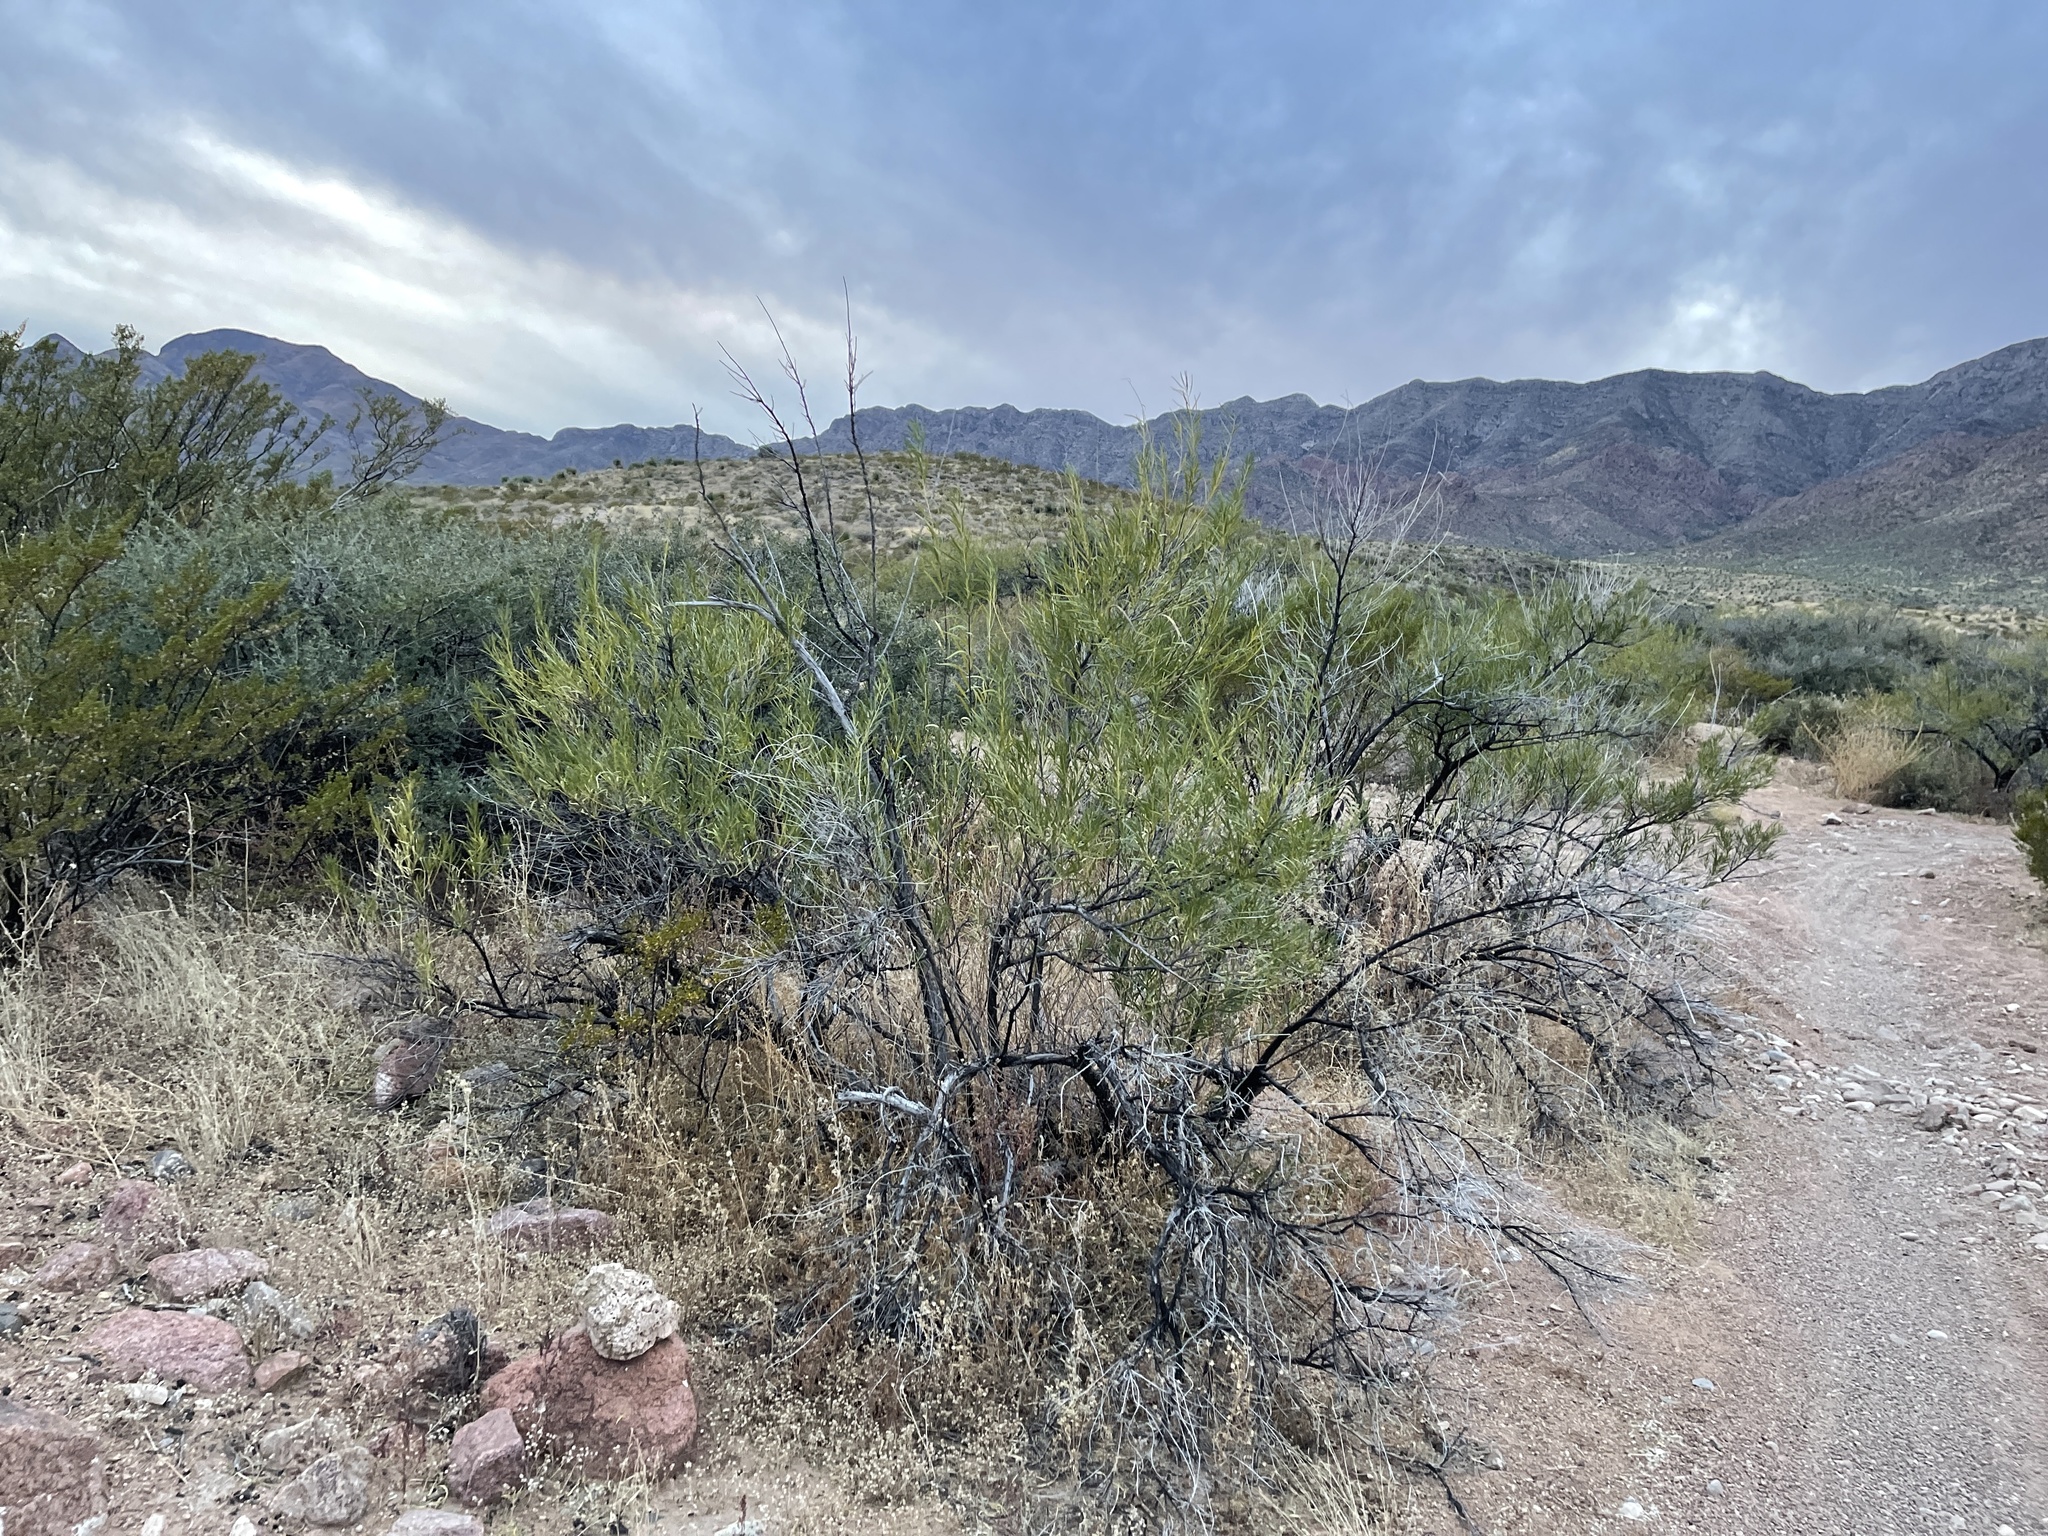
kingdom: Plantae
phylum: Tracheophyta
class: Magnoliopsida
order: Lamiales
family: Bignoniaceae
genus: Chilopsis
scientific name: Chilopsis linearis
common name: Desert-willow
